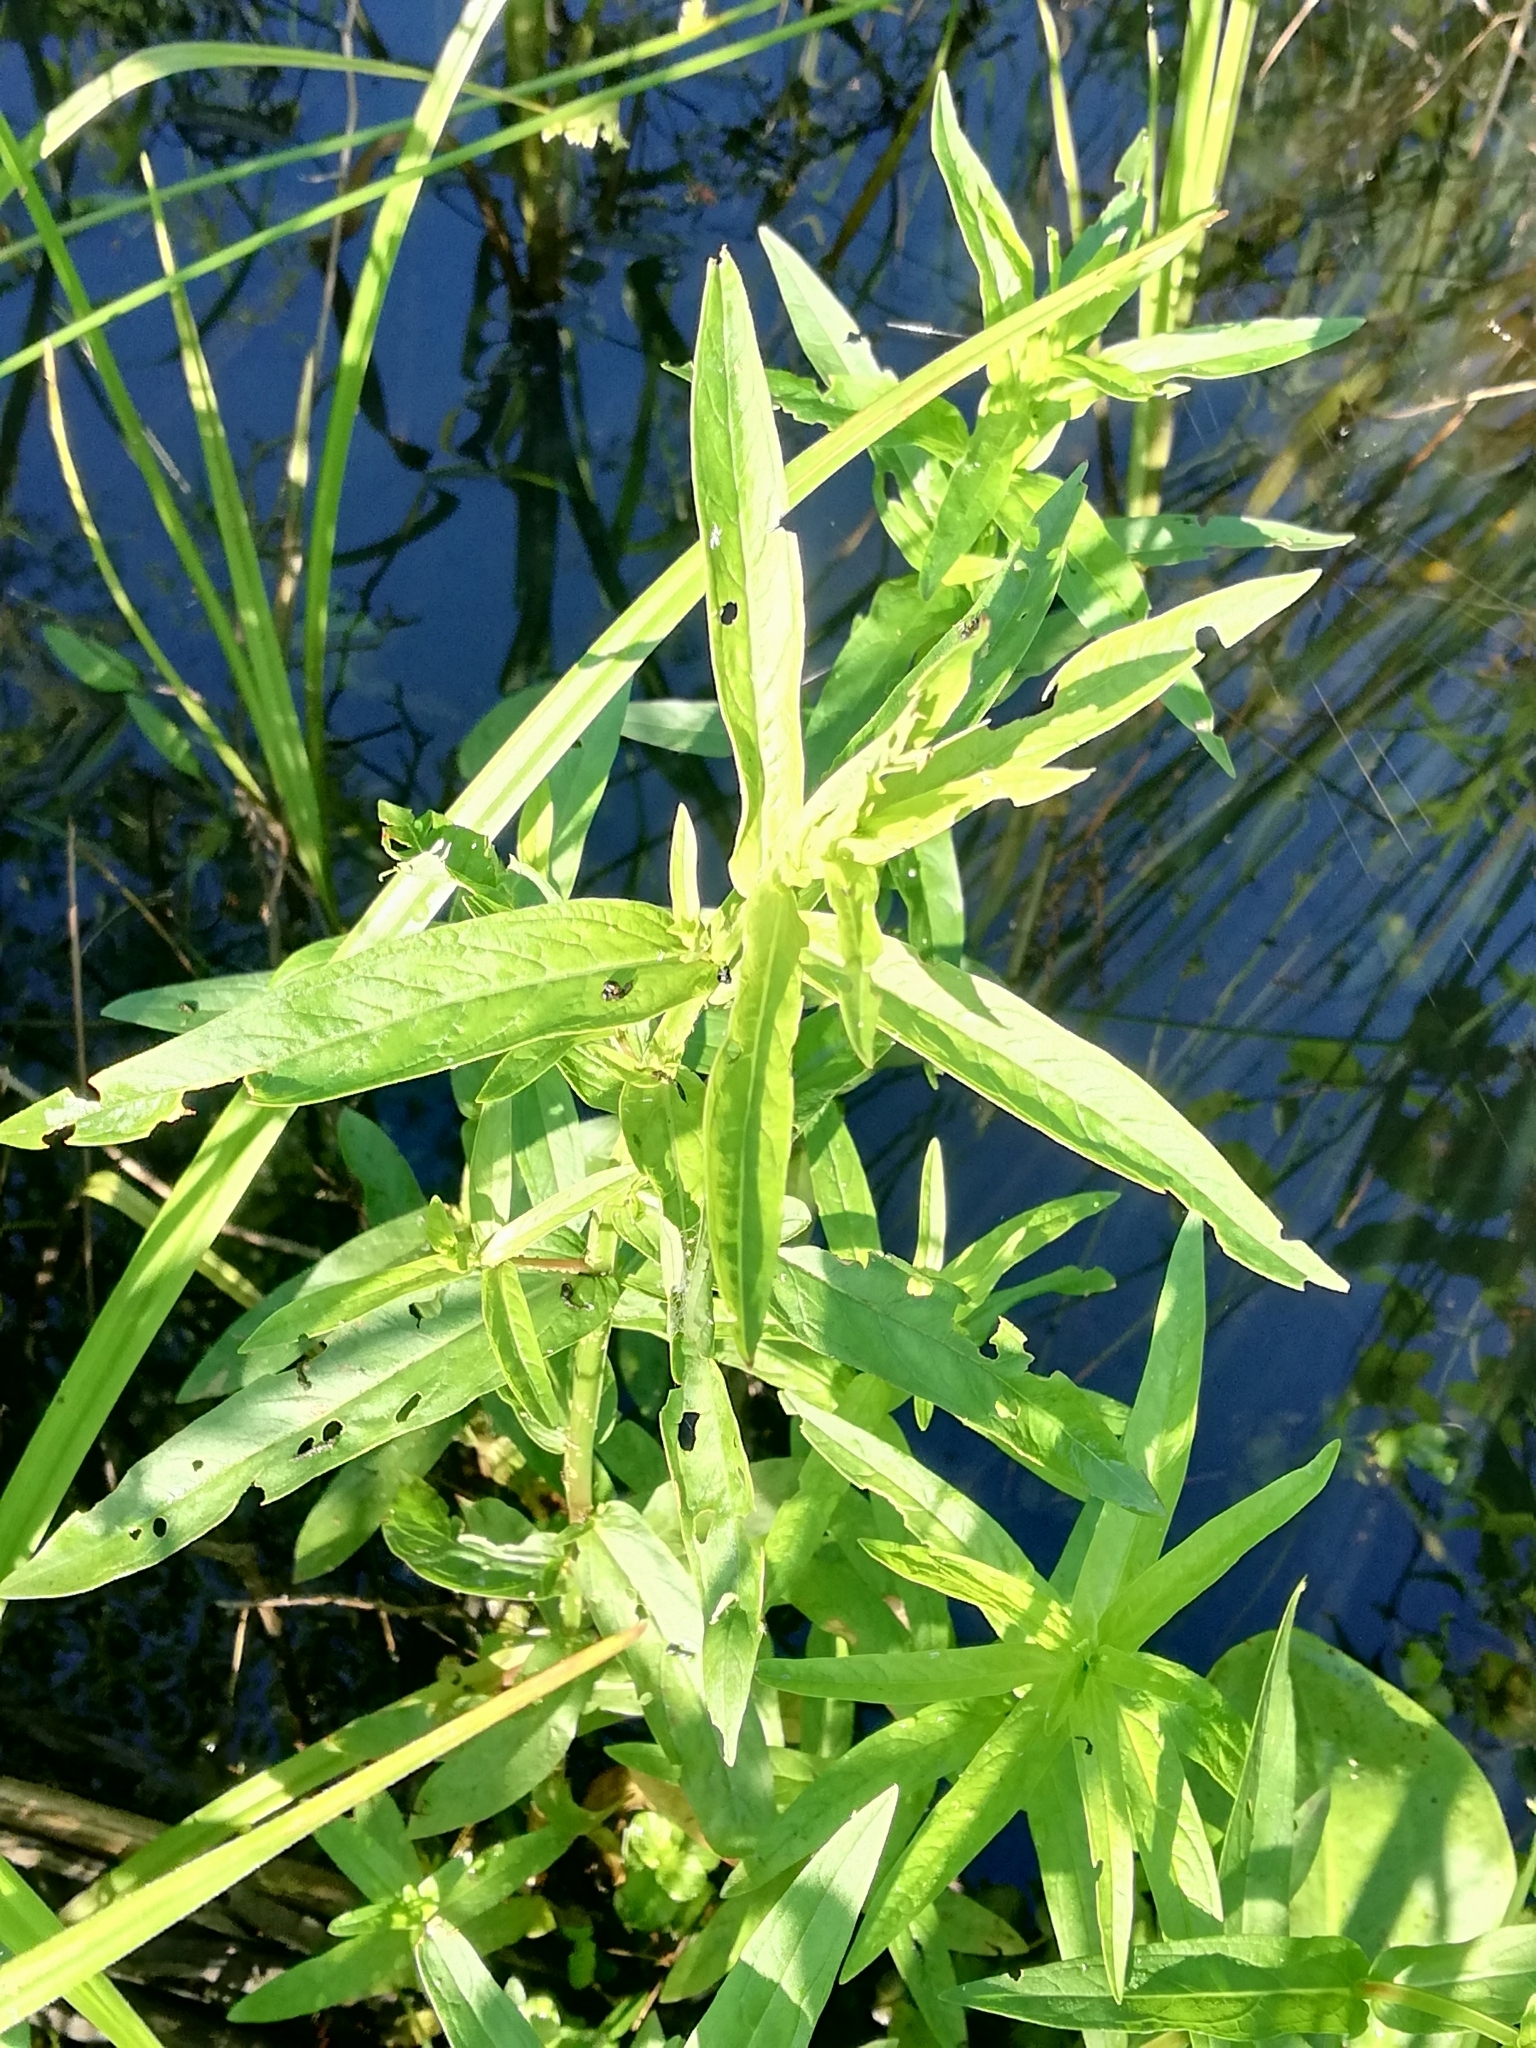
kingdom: Plantae
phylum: Tracheophyta
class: Magnoliopsida
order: Myrtales
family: Lythraceae
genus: Lythrum
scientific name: Lythrum salicaria
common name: Purple loosestrife
